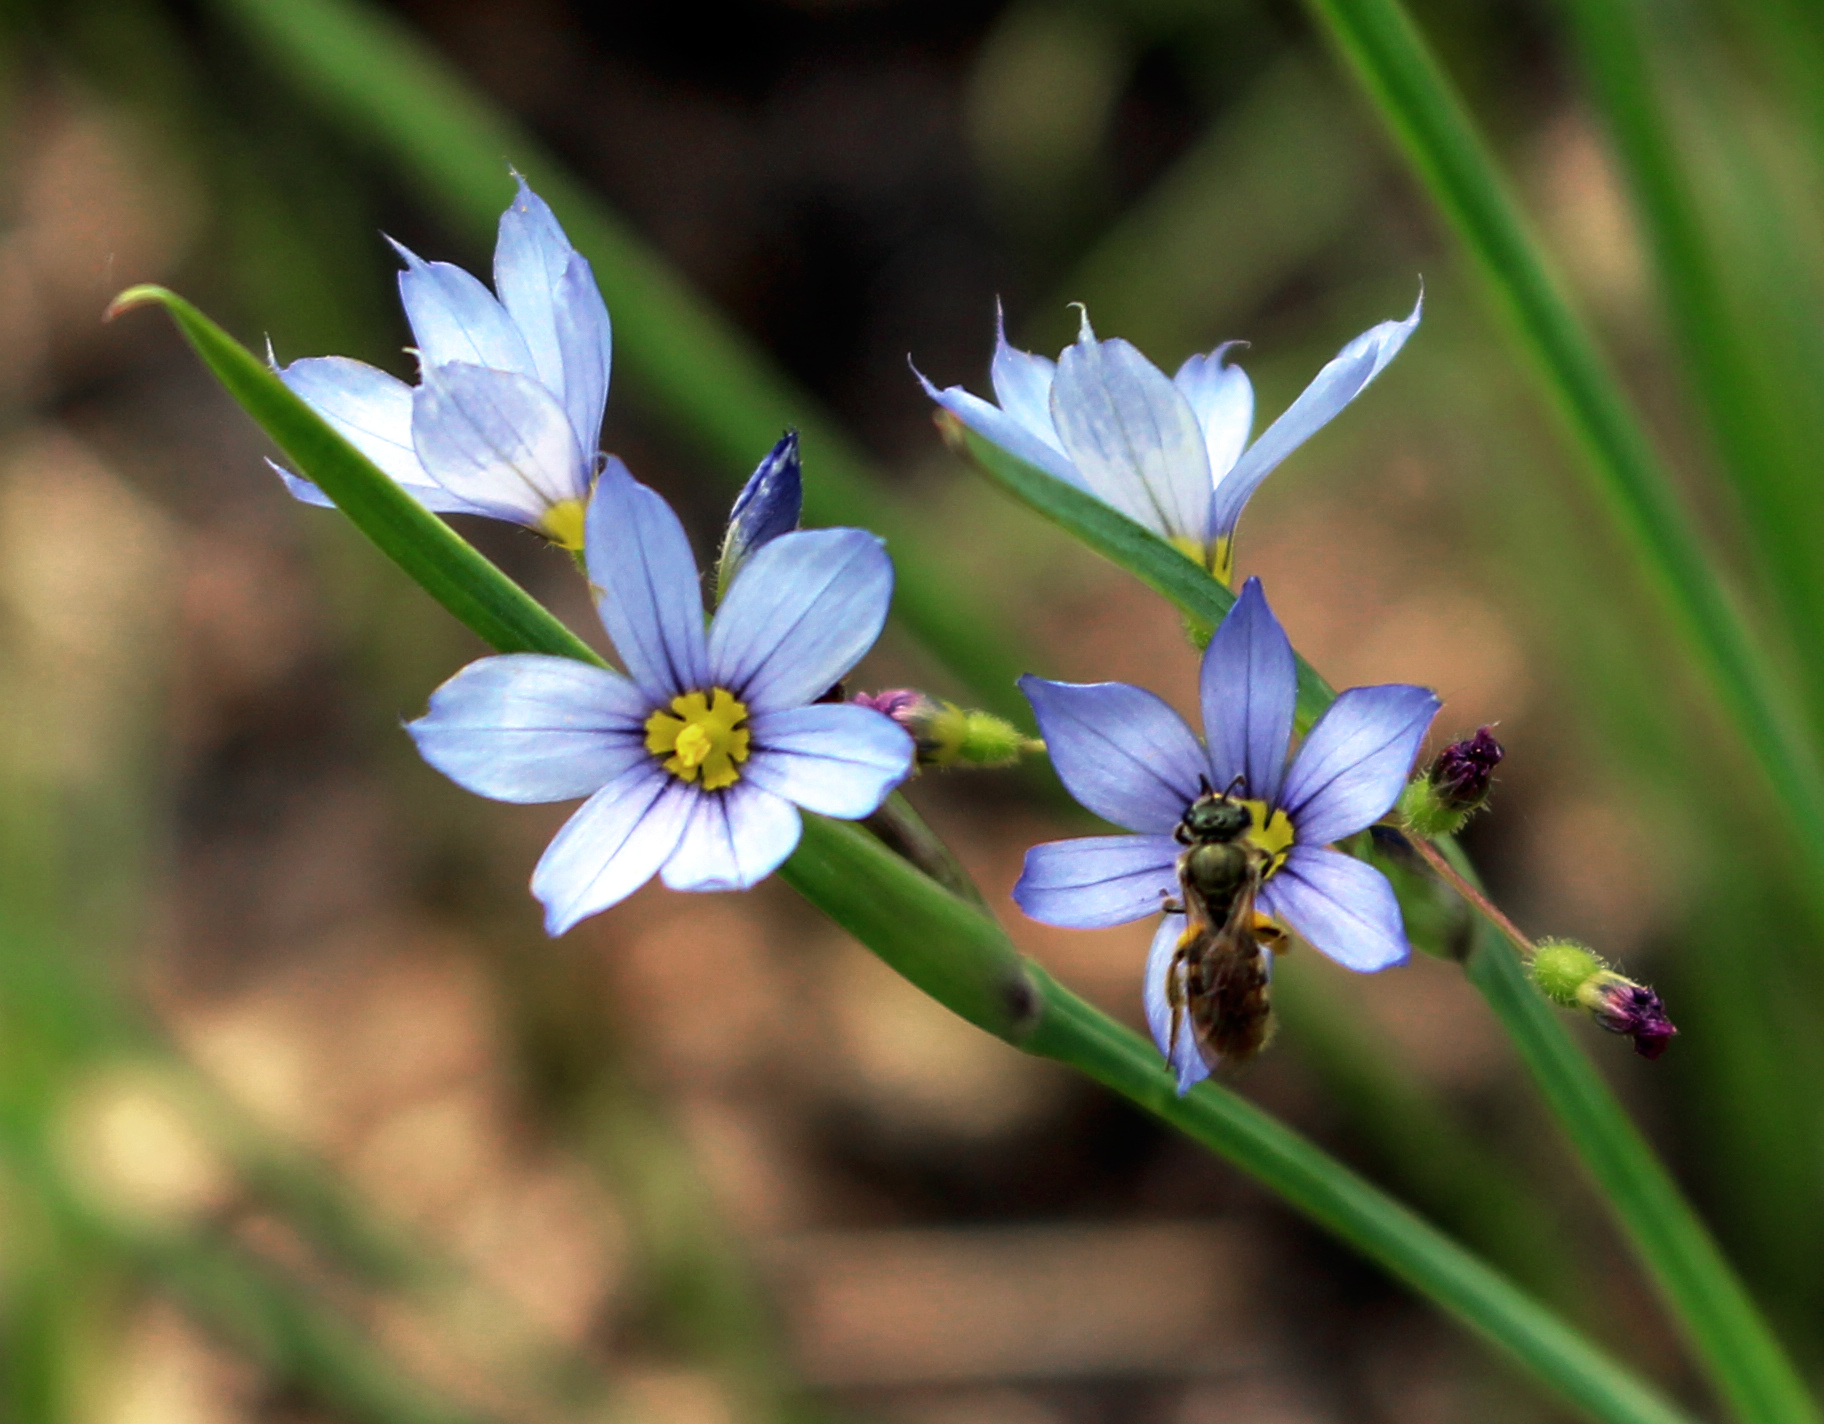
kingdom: Plantae
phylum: Tracheophyta
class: Liliopsida
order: Asparagales
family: Iridaceae
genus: Sisyrinchium
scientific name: Sisyrinchium campestre
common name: Prairie blue-eyed-grass
